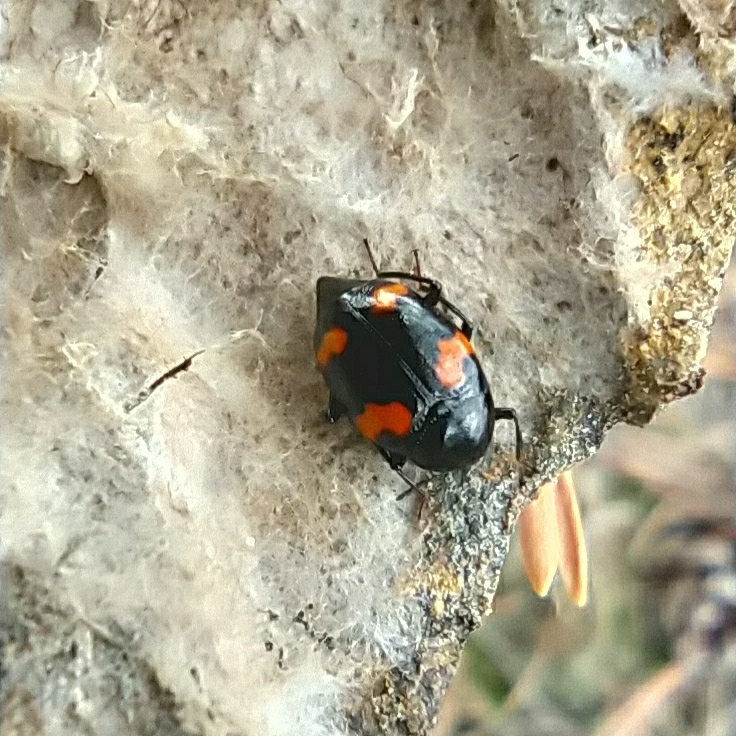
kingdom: Animalia
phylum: Arthropoda
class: Insecta
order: Coleoptera
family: Staphylinidae
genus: Scaphidium
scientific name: Scaphidium quadrimaculatum
